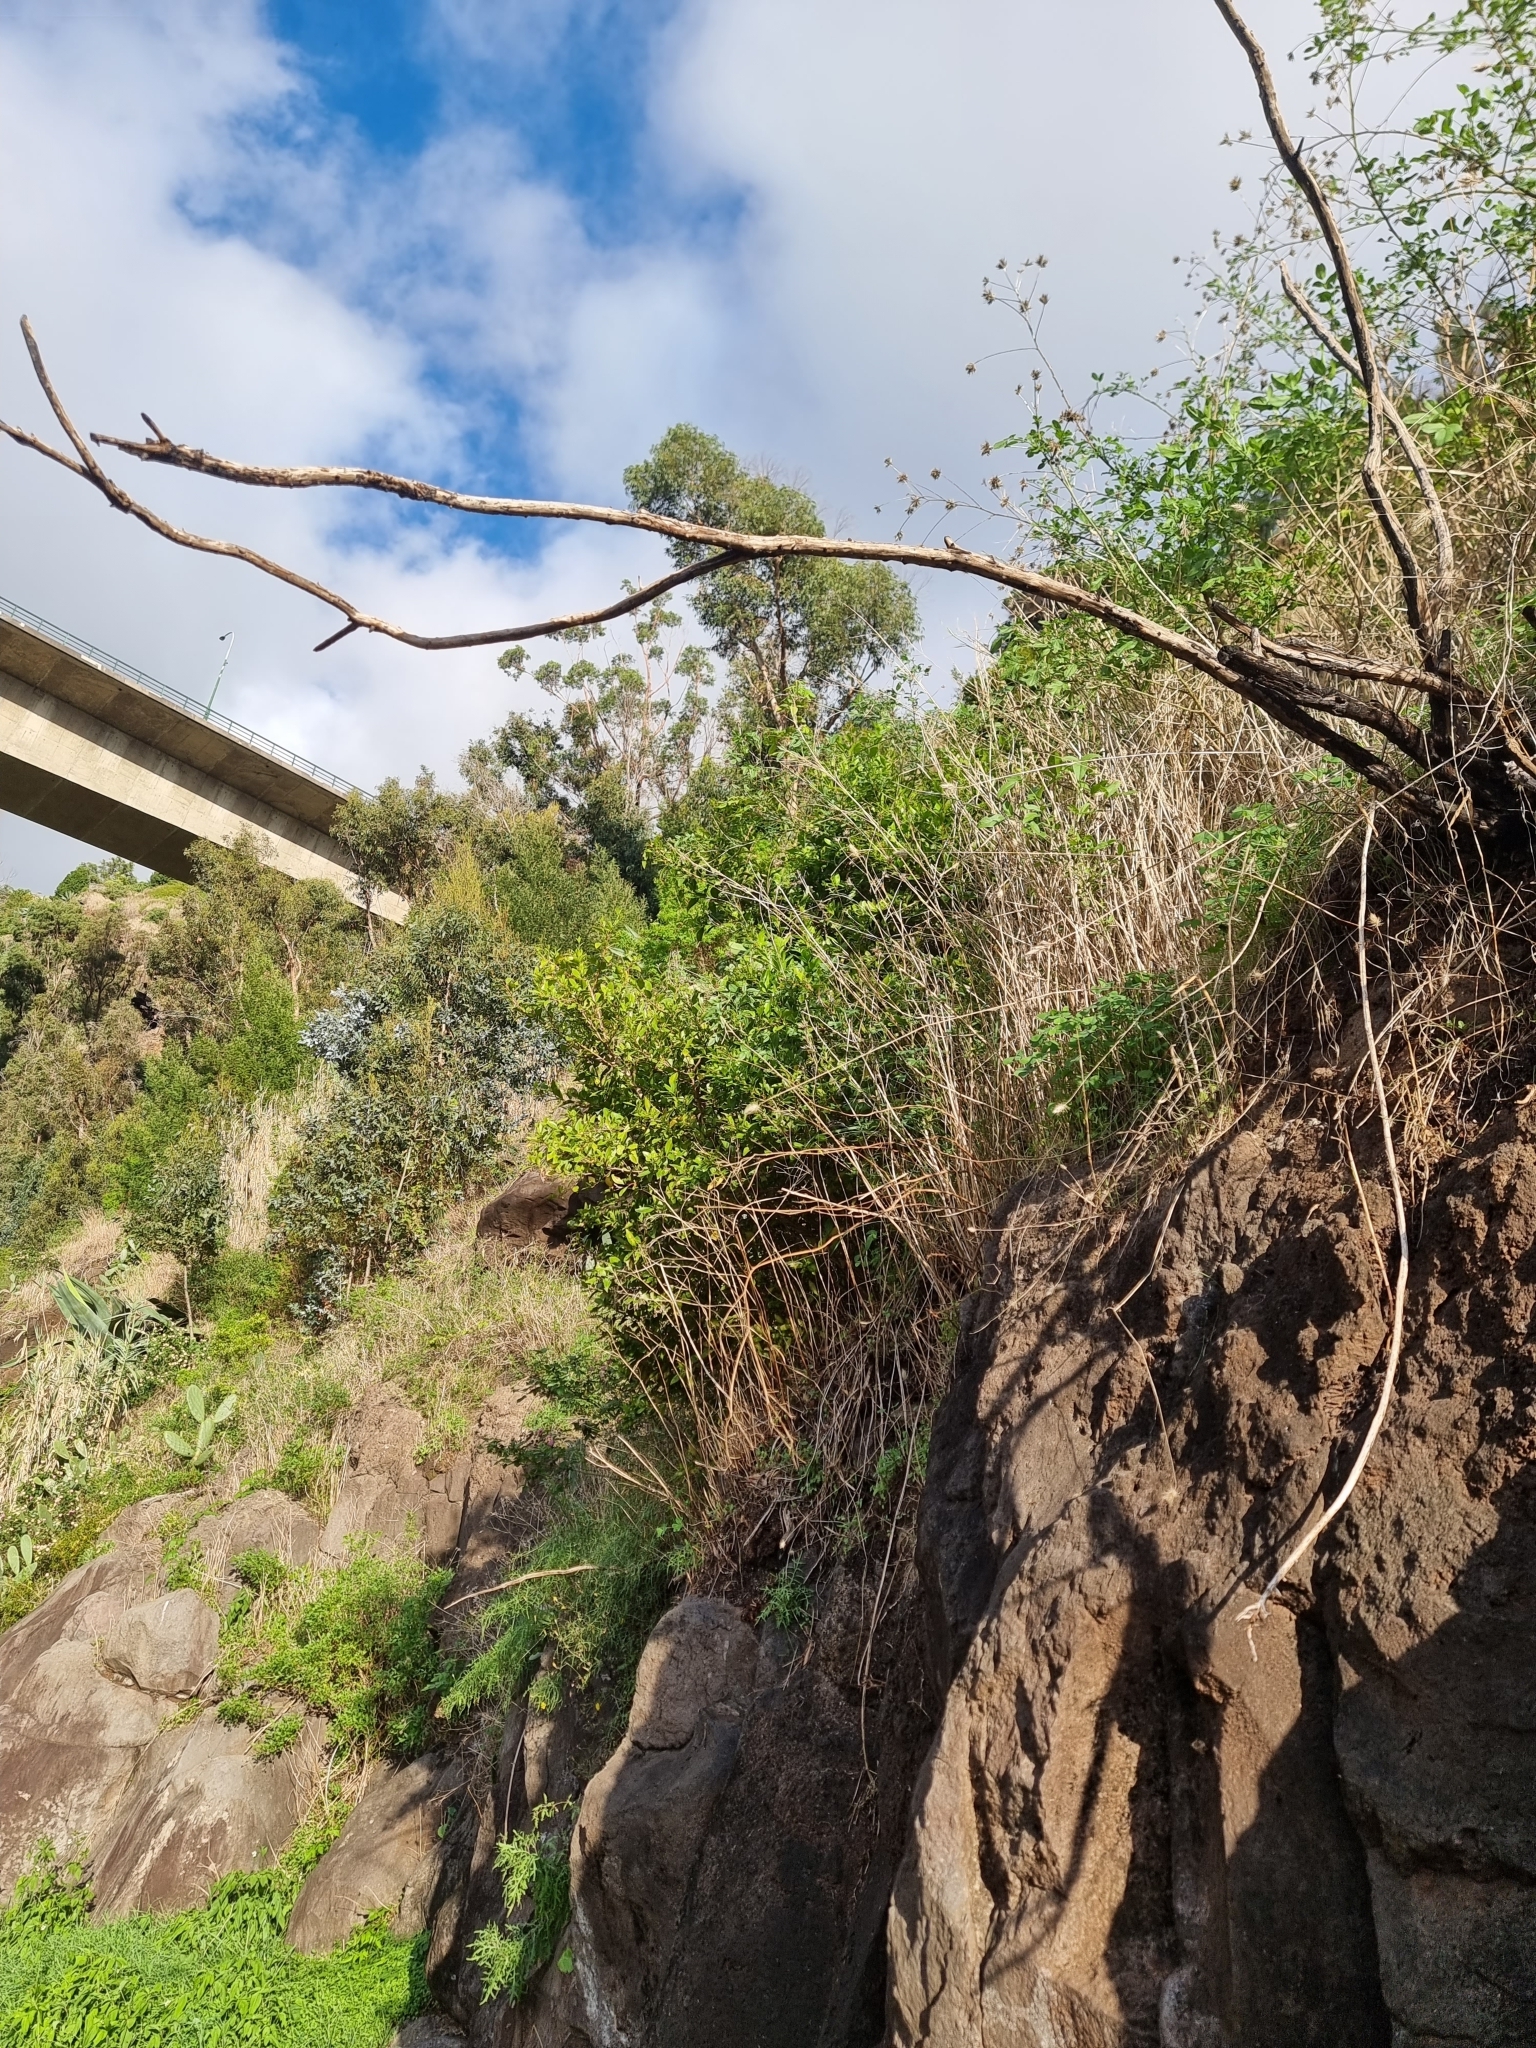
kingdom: Plantae
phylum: Tracheophyta
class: Magnoliopsida
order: Celastrales
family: Celastraceae
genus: Gymnosporia
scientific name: Gymnosporia dryandri
